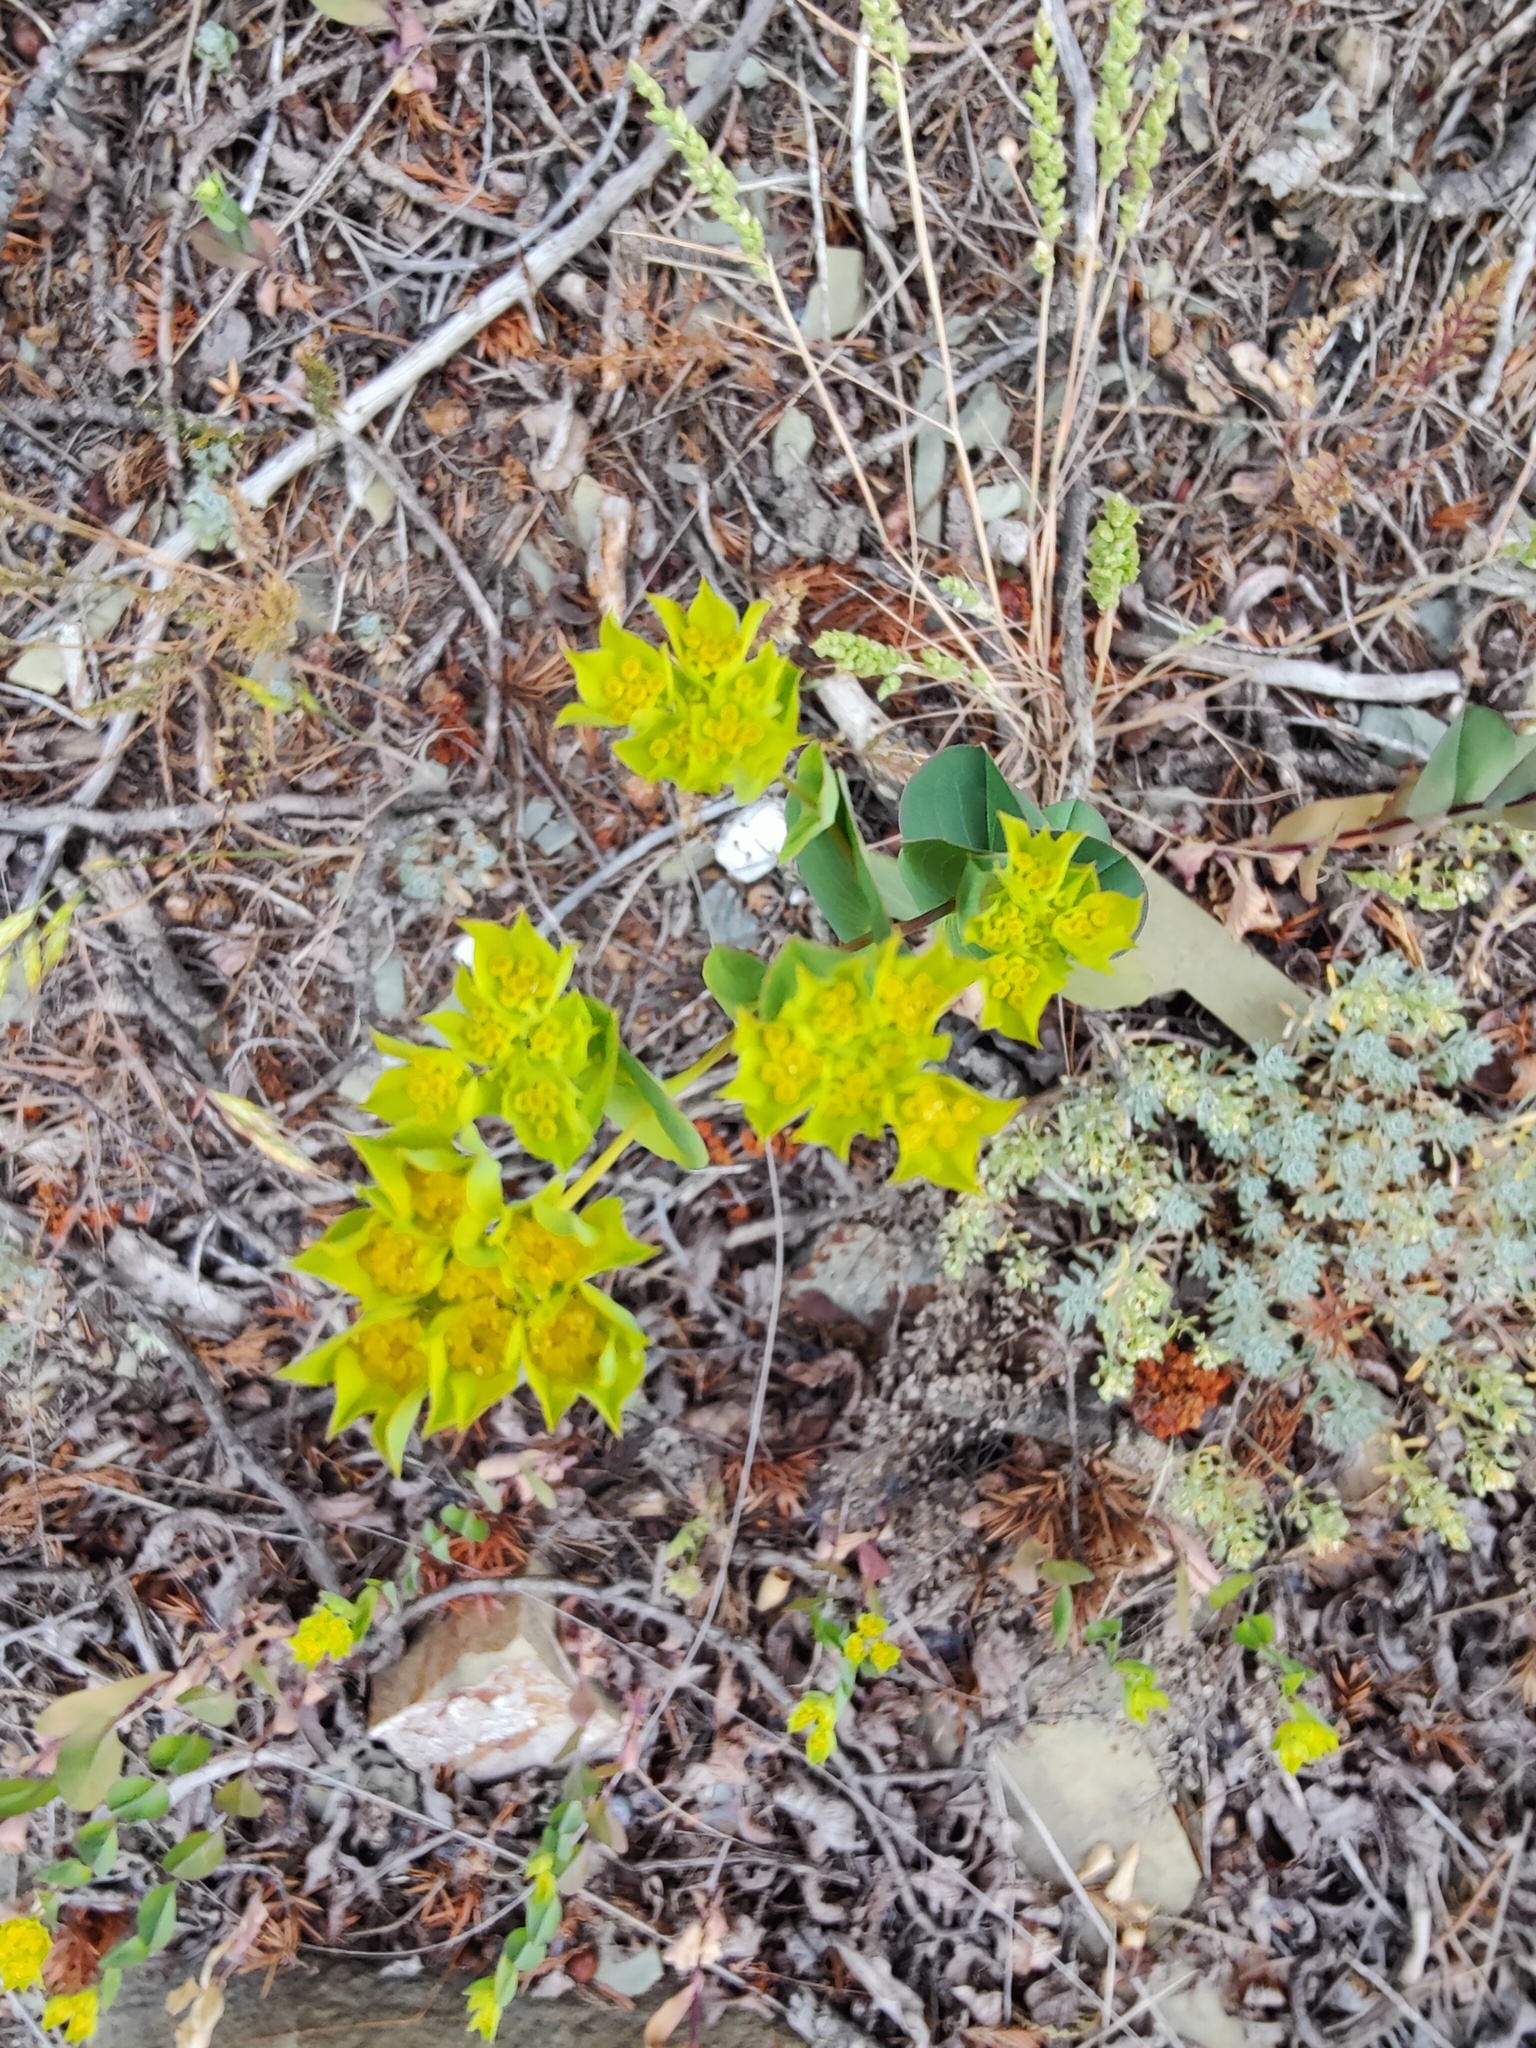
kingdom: Plantae
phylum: Tracheophyta
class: Magnoliopsida
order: Apiales
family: Apiaceae
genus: Bupleurum
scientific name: Bupleurum rotundifolium
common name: Thorow-wax
